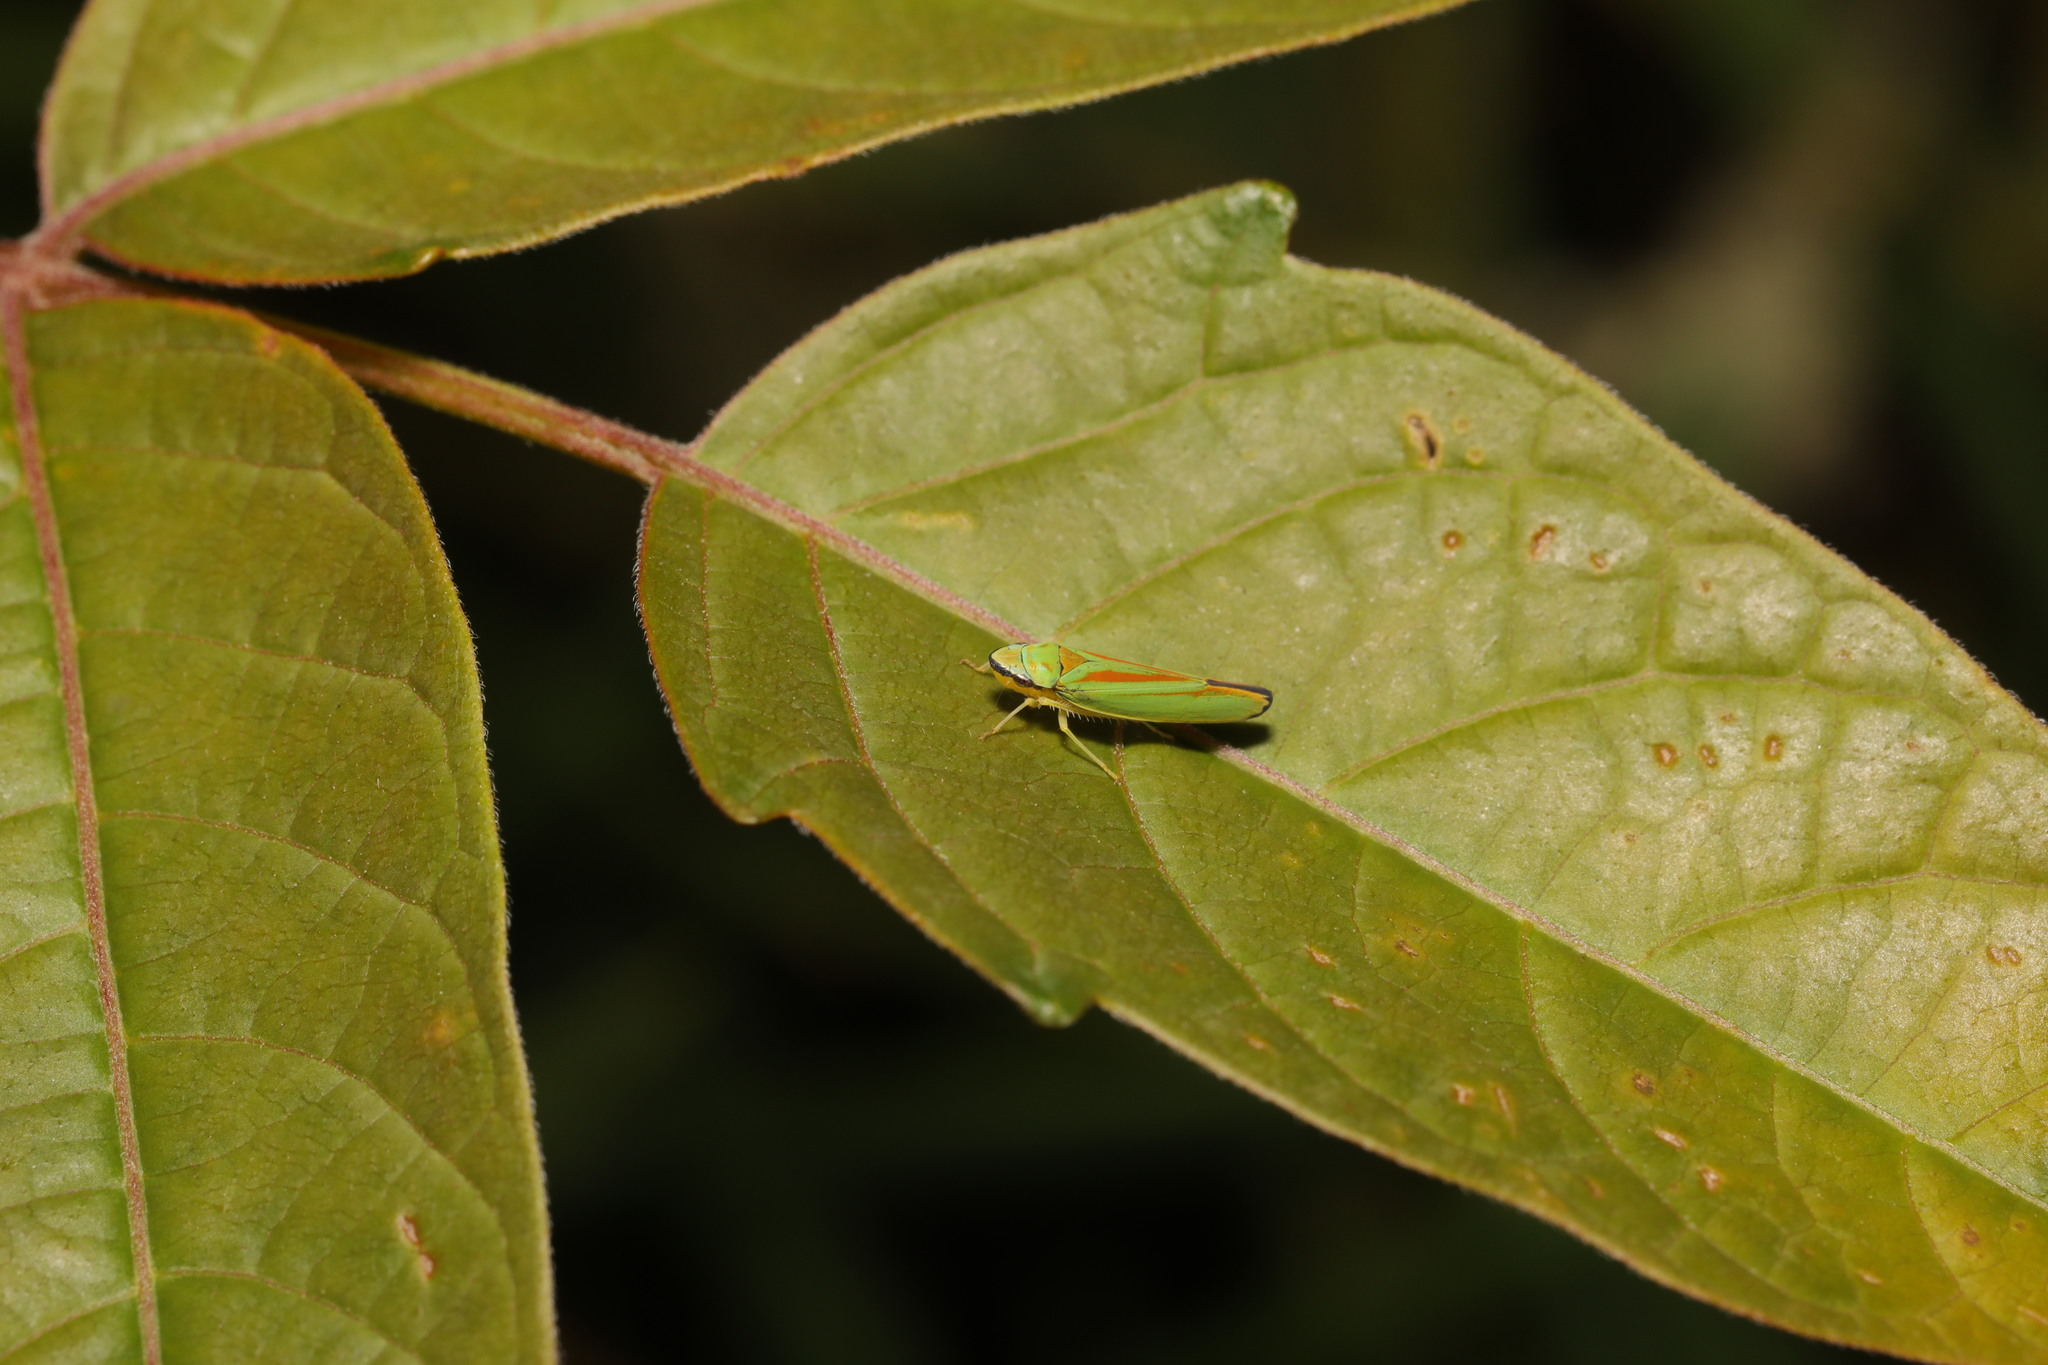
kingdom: Animalia
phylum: Arthropoda
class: Insecta
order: Hemiptera
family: Cicadellidae
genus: Graphocephala
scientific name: Graphocephala fennahi
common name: Rhododendron leafhopper
